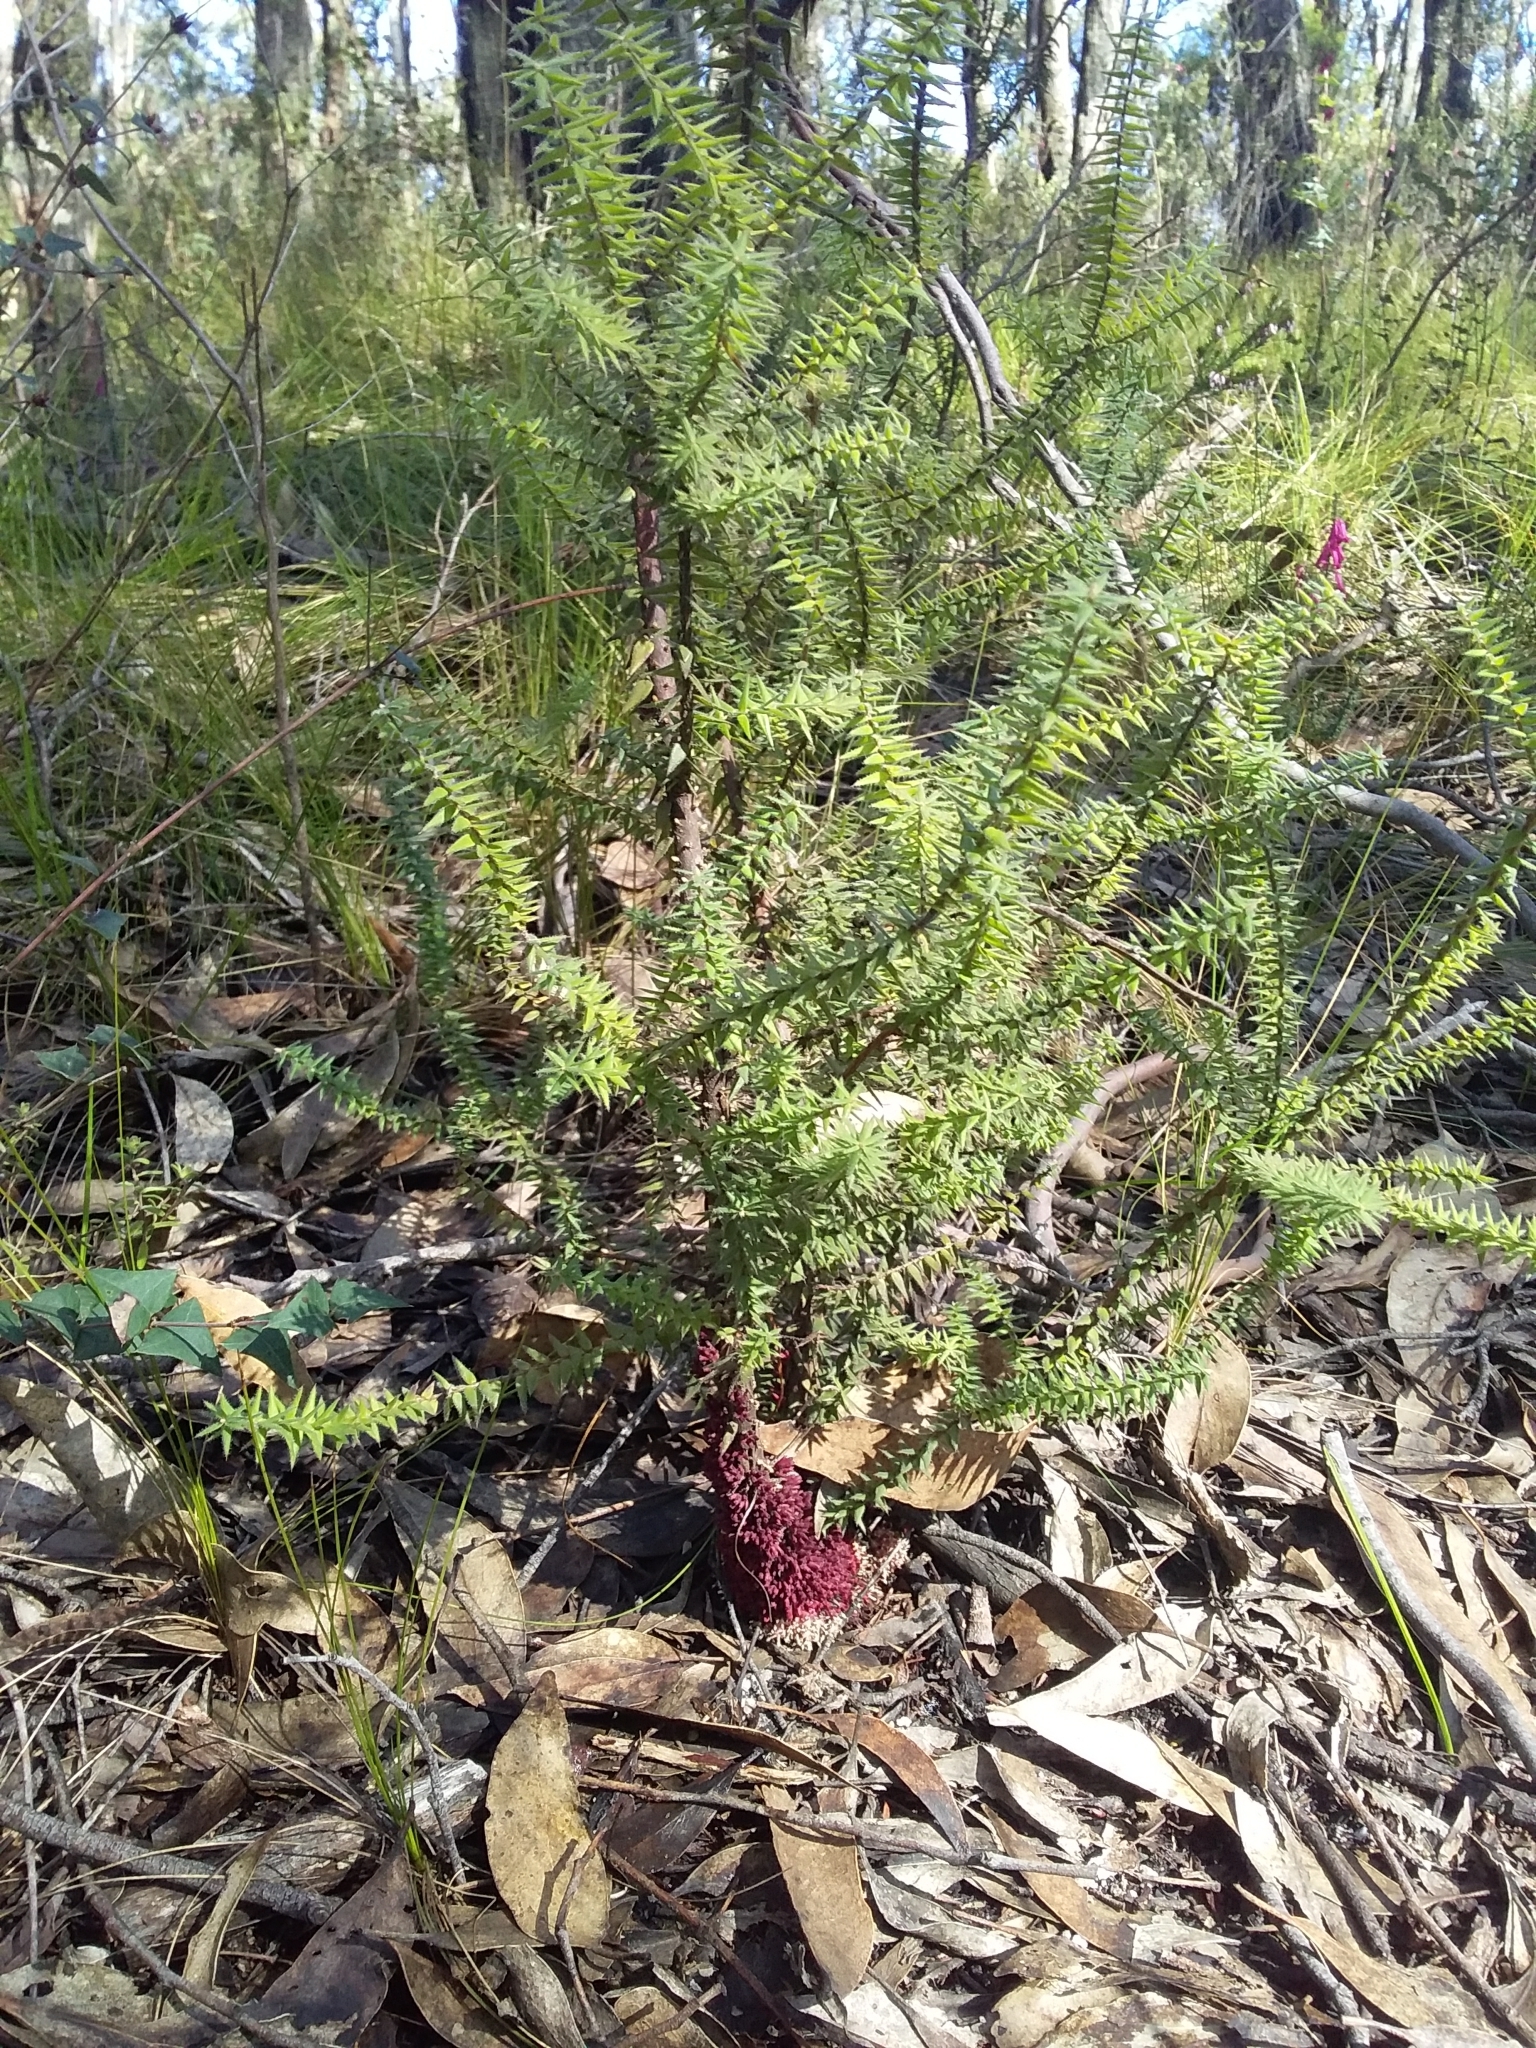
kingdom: Plantae
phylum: Tracheophyta
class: Magnoliopsida
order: Ericales
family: Ericaceae
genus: Acrotriche
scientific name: Acrotriche fasciculiflora
